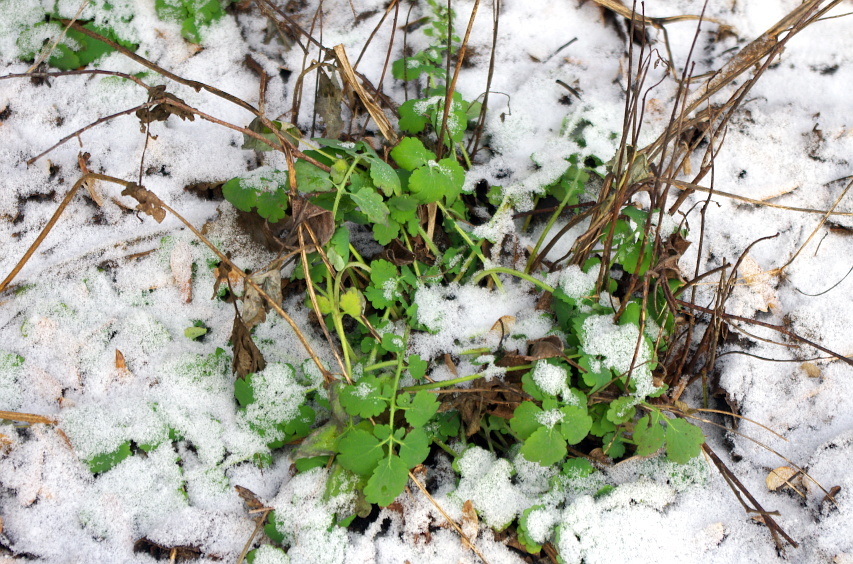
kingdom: Plantae
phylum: Tracheophyta
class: Magnoliopsida
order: Ranunculales
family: Papaveraceae
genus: Chelidonium
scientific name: Chelidonium majus
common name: Greater celandine
